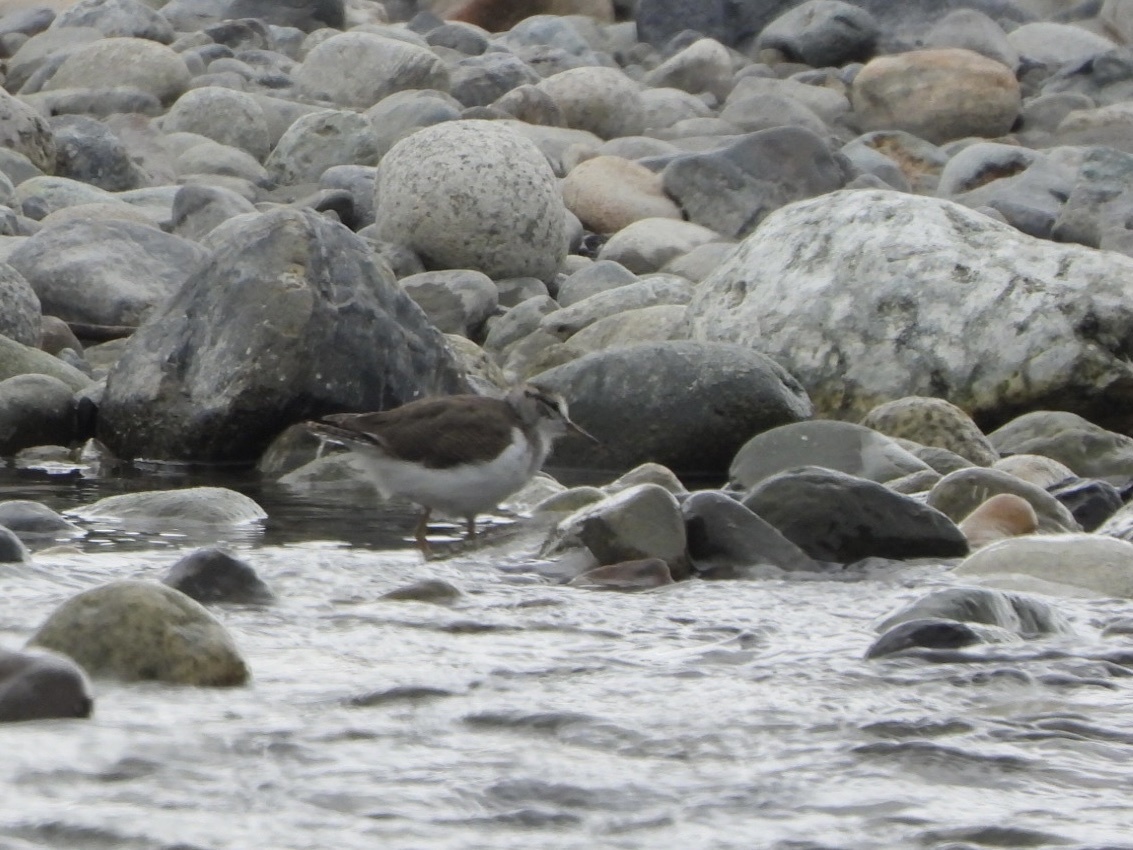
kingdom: Animalia
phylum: Chordata
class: Aves
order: Charadriiformes
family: Scolopacidae
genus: Actitis
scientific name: Actitis macularius
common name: Spotted sandpiper
